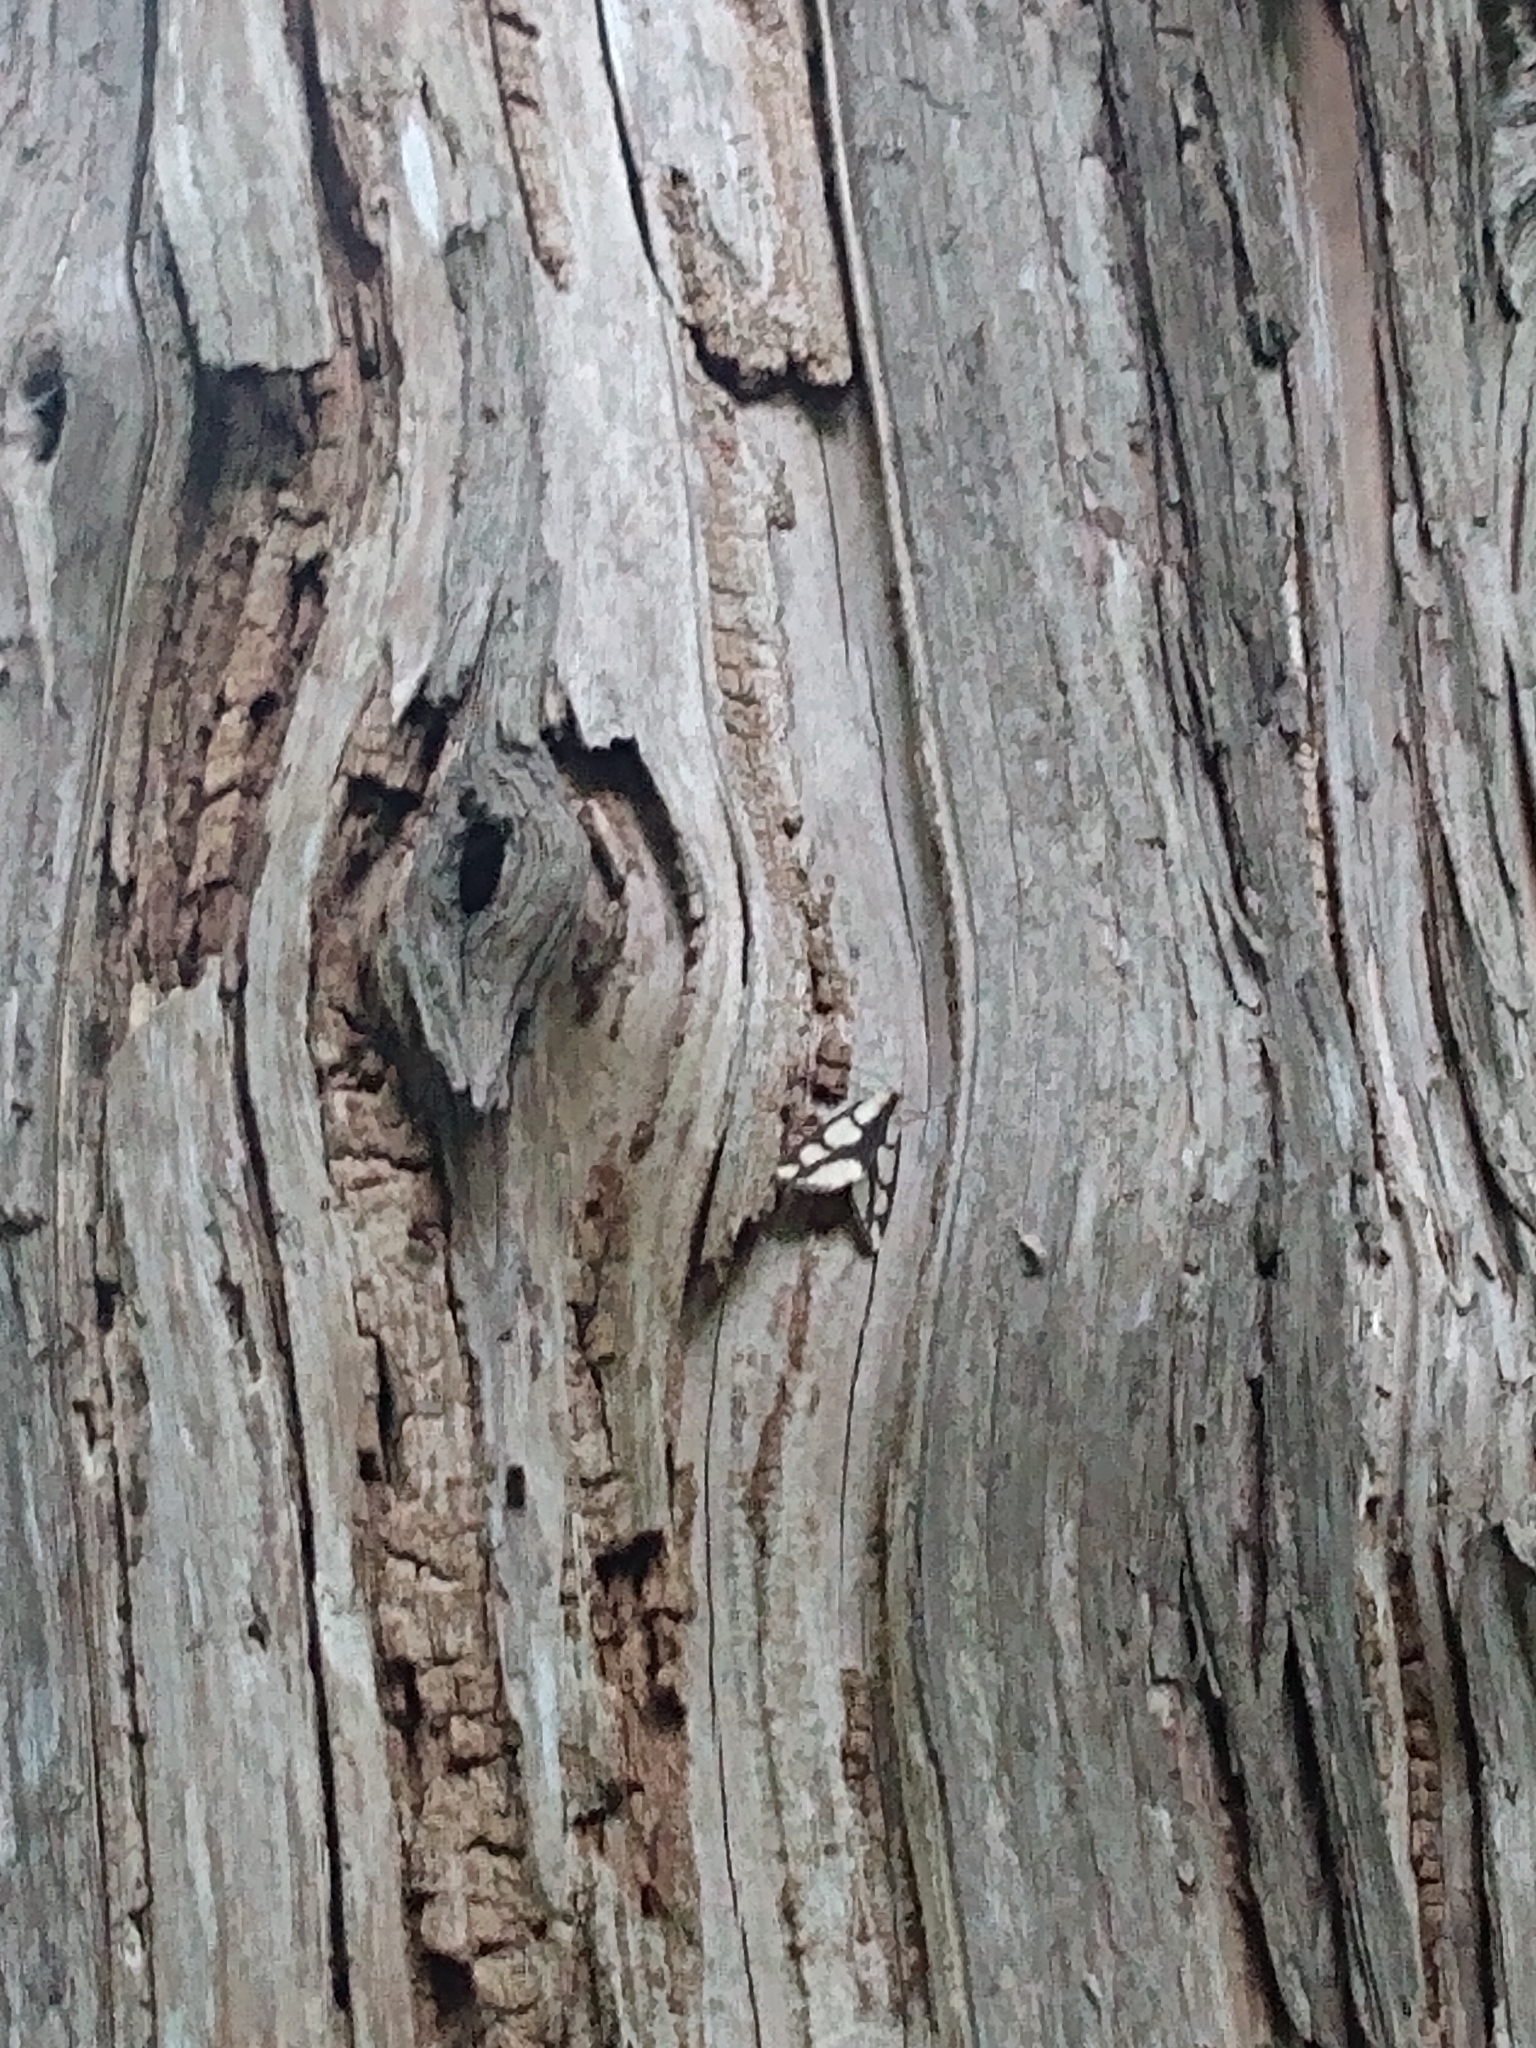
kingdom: Animalia
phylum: Arthropoda
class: Insecta
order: Lepidoptera
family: Erebidae
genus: Haploa
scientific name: Haploa lecontei
